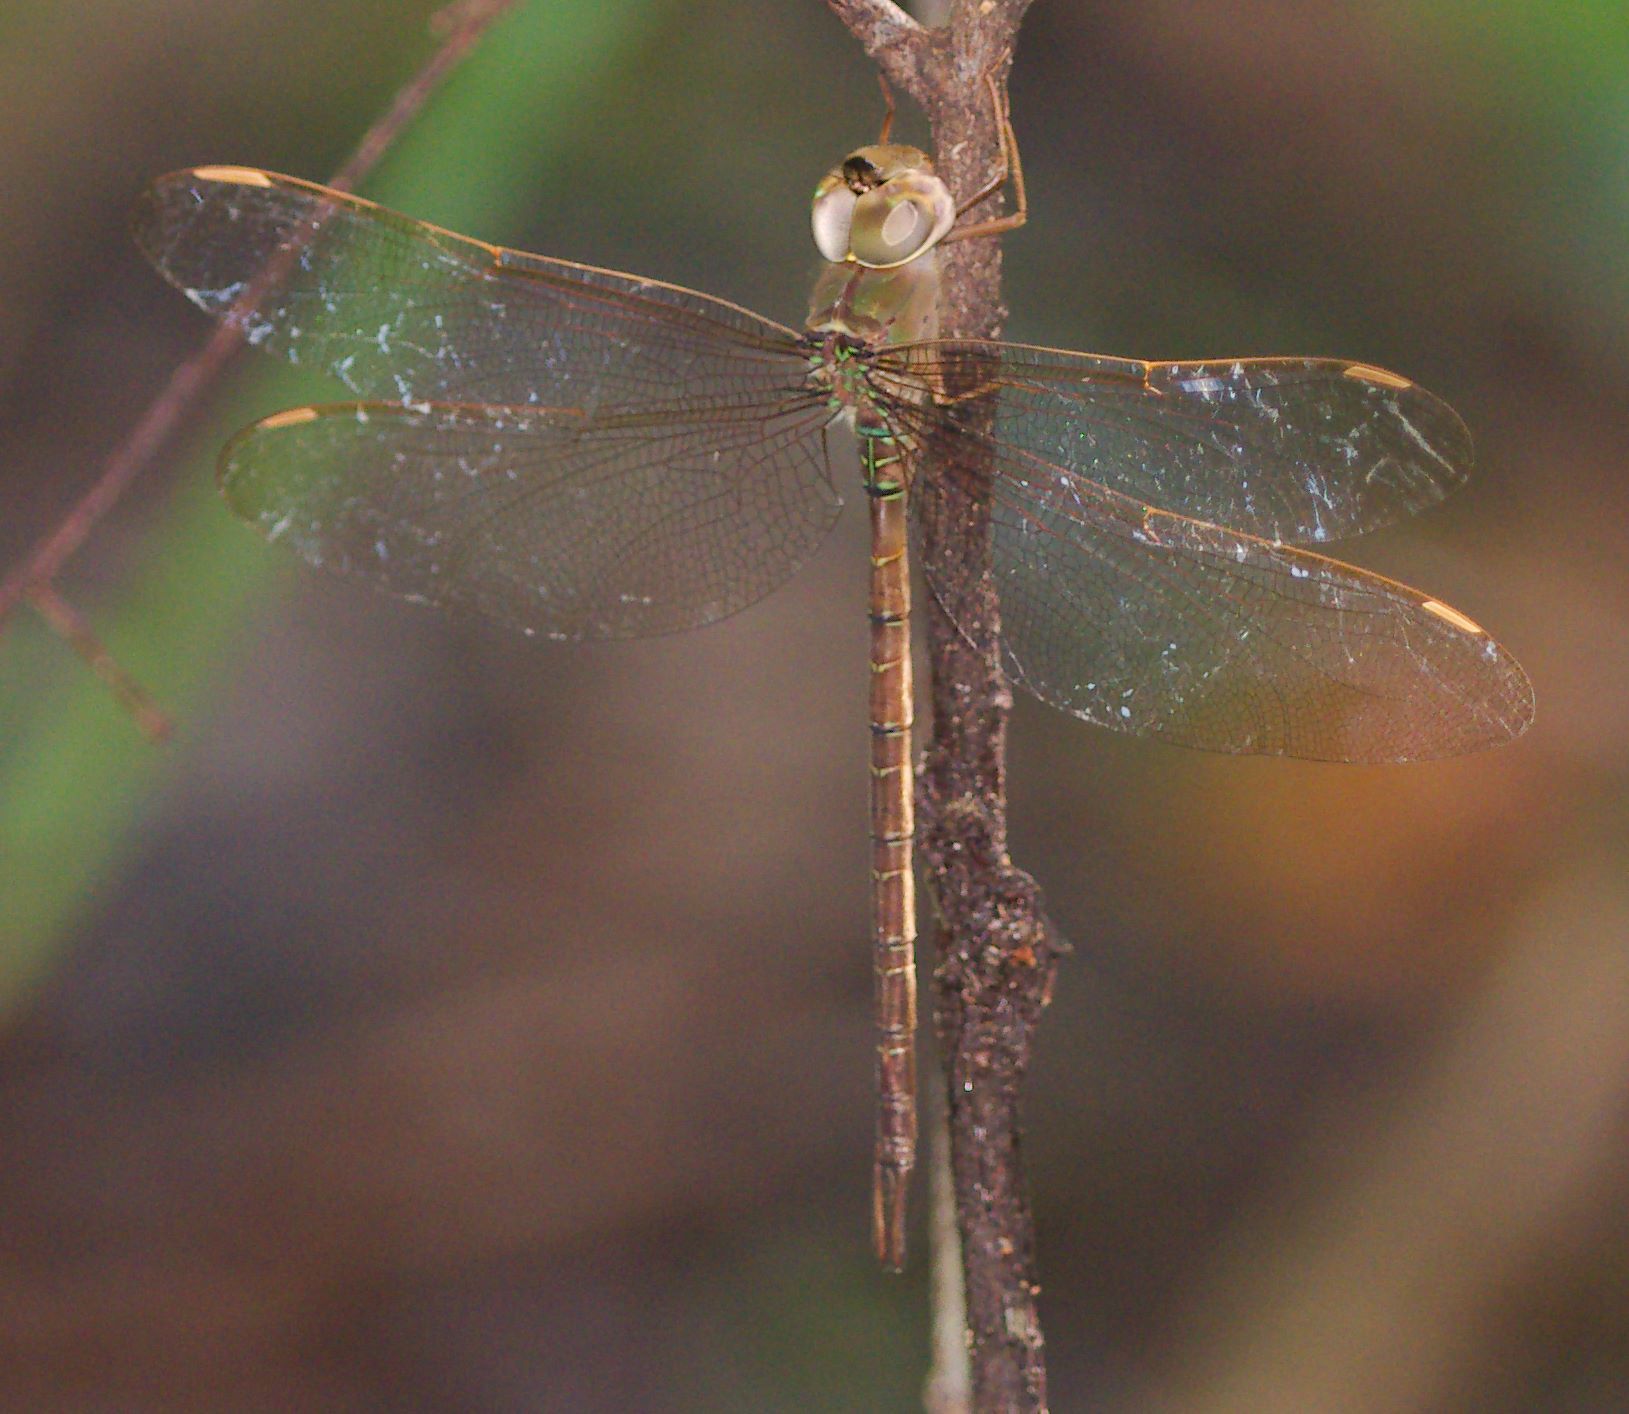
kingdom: Animalia
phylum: Arthropoda
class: Insecta
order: Odonata
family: Aeshnidae
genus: Gynacantha
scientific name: Gynacantha nervosa
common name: Twilight darner
